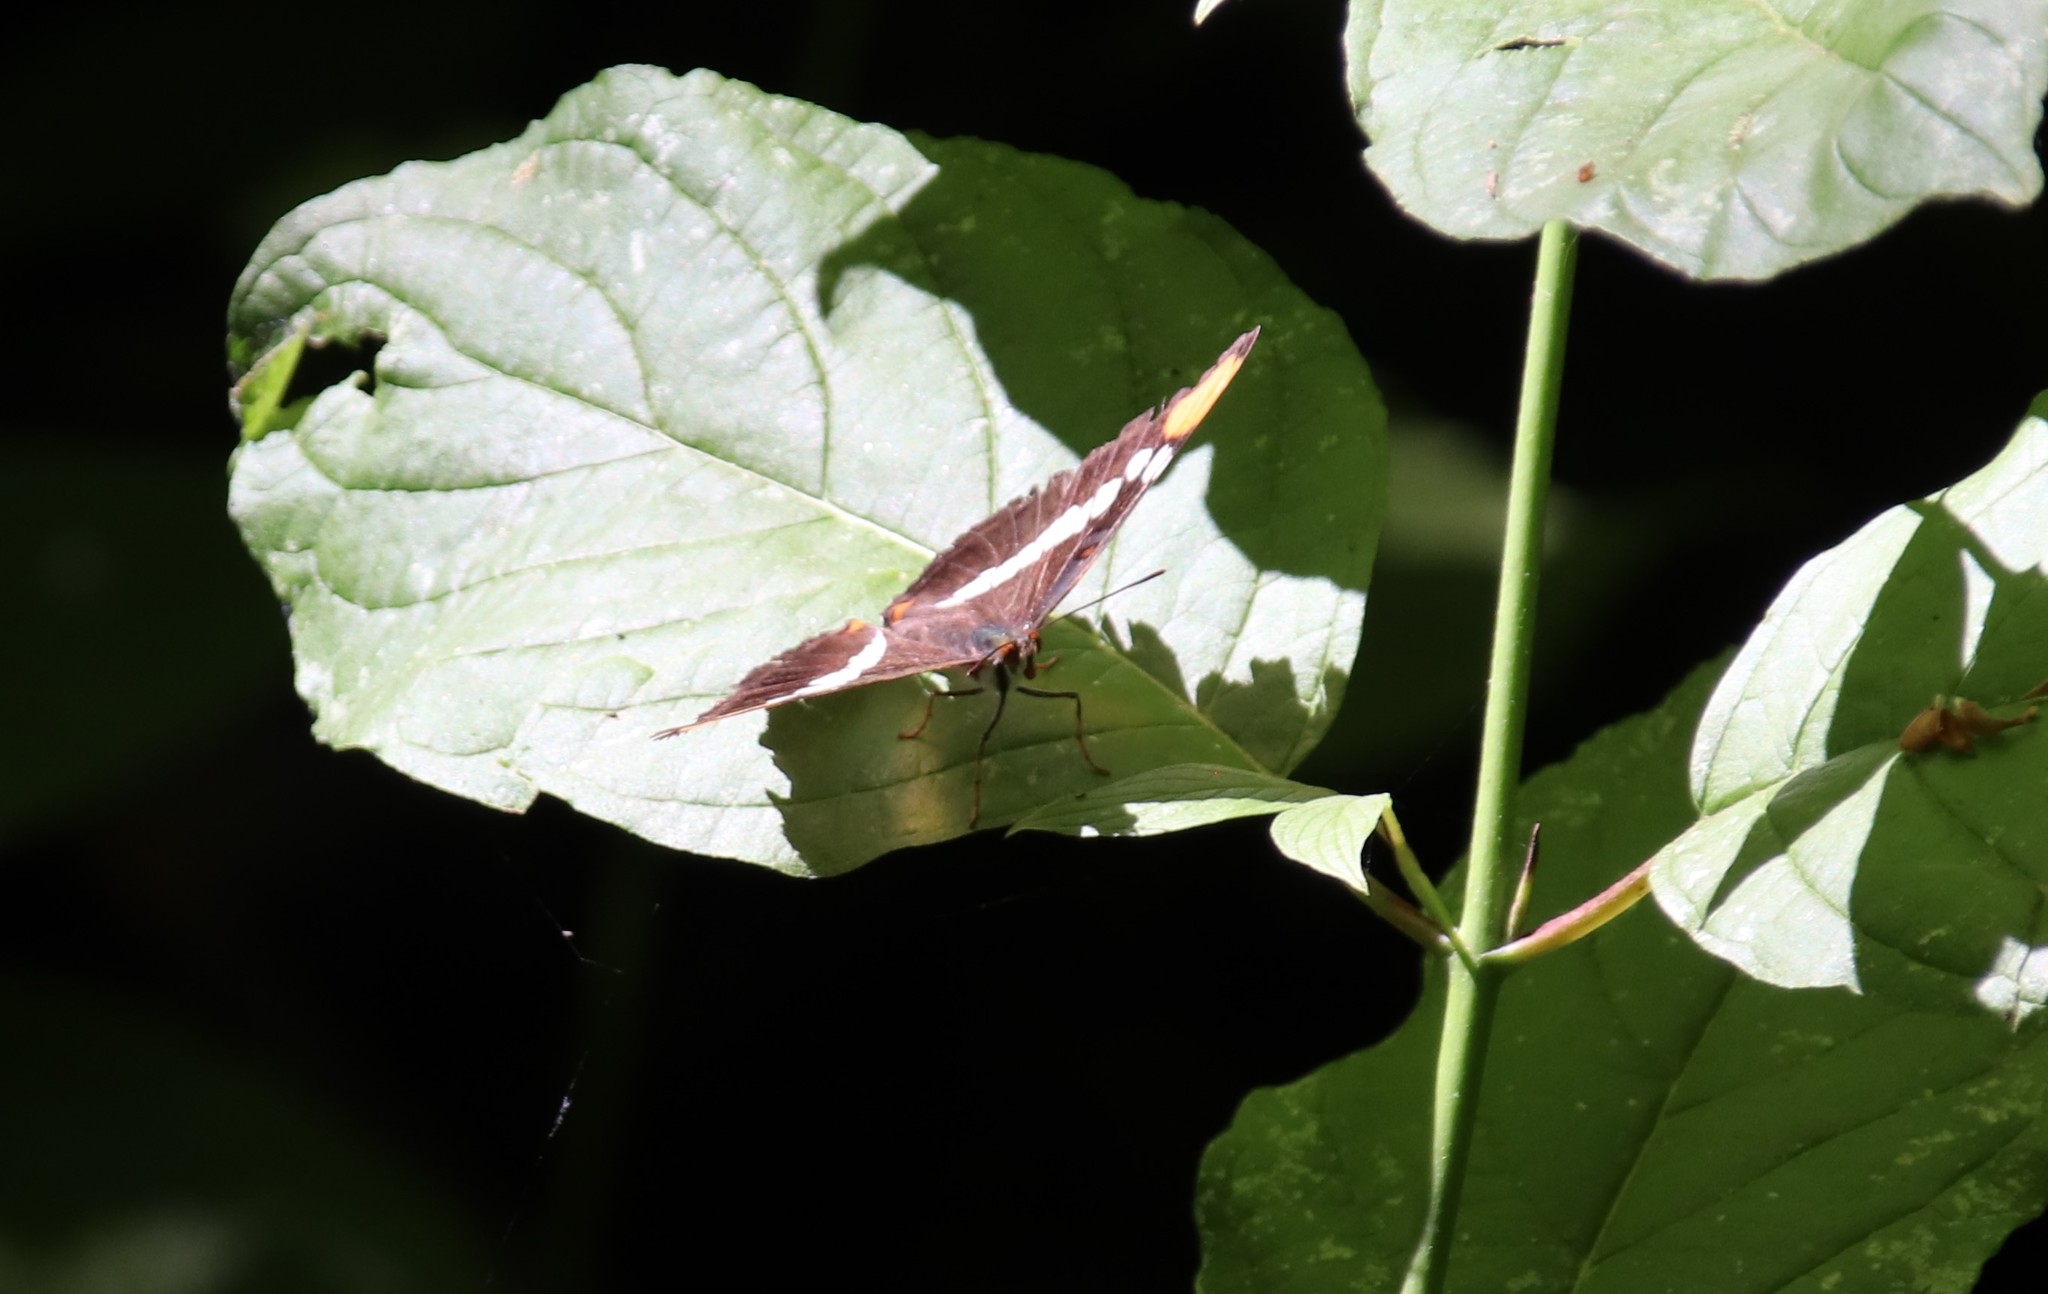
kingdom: Animalia
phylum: Arthropoda
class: Insecta
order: Lepidoptera
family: Nymphalidae
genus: Limenitis
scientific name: Limenitis bredowii
